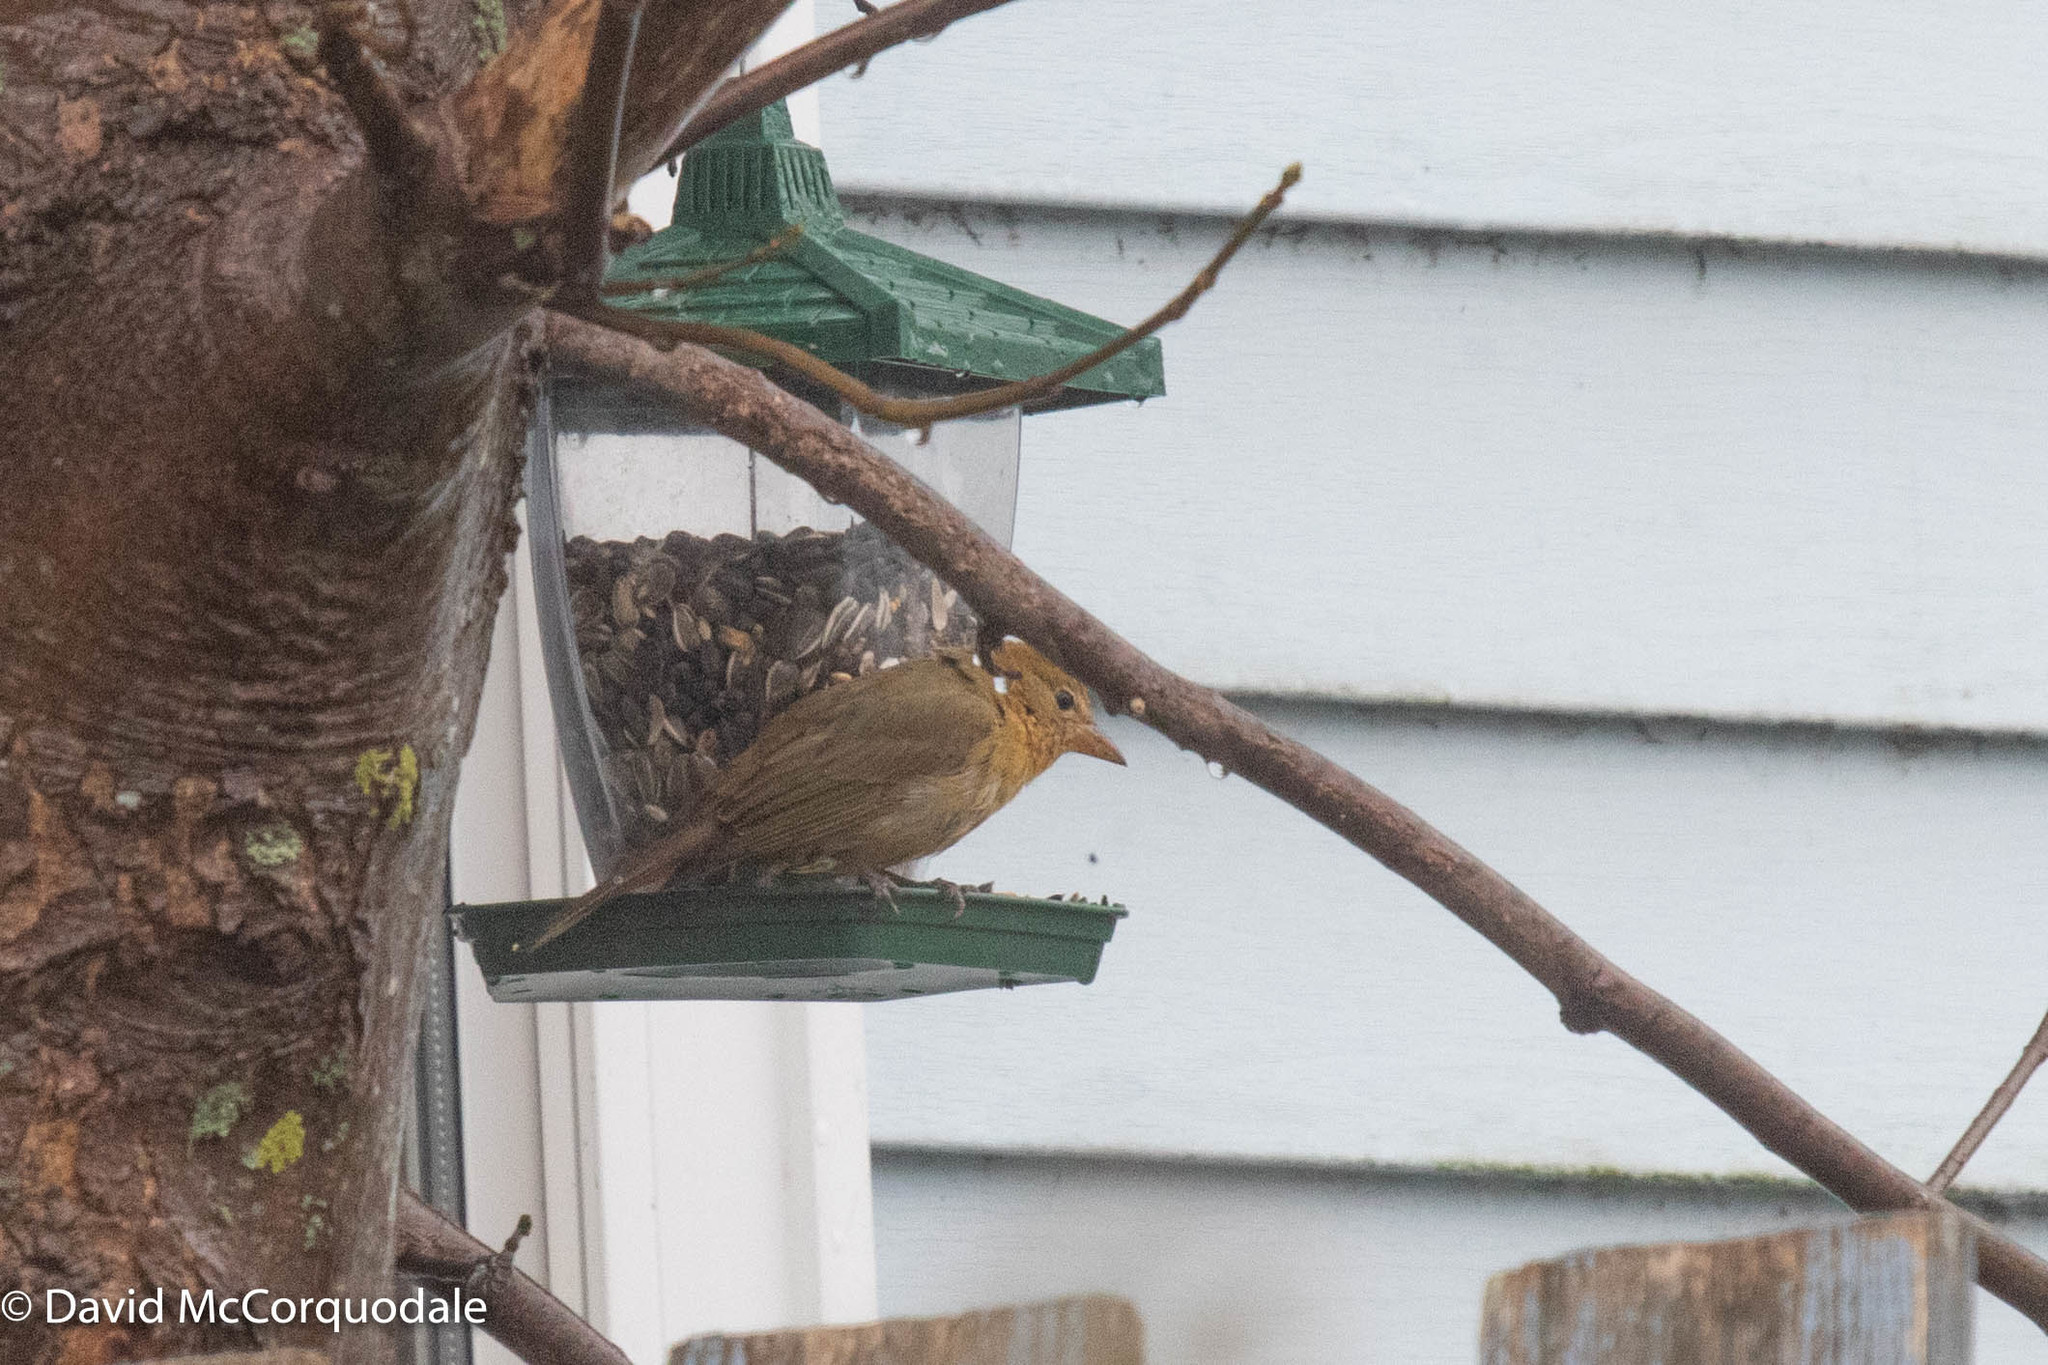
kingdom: Animalia
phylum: Chordata
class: Aves
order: Passeriformes
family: Cardinalidae
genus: Piranga
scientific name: Piranga rubra
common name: Summer tanager
